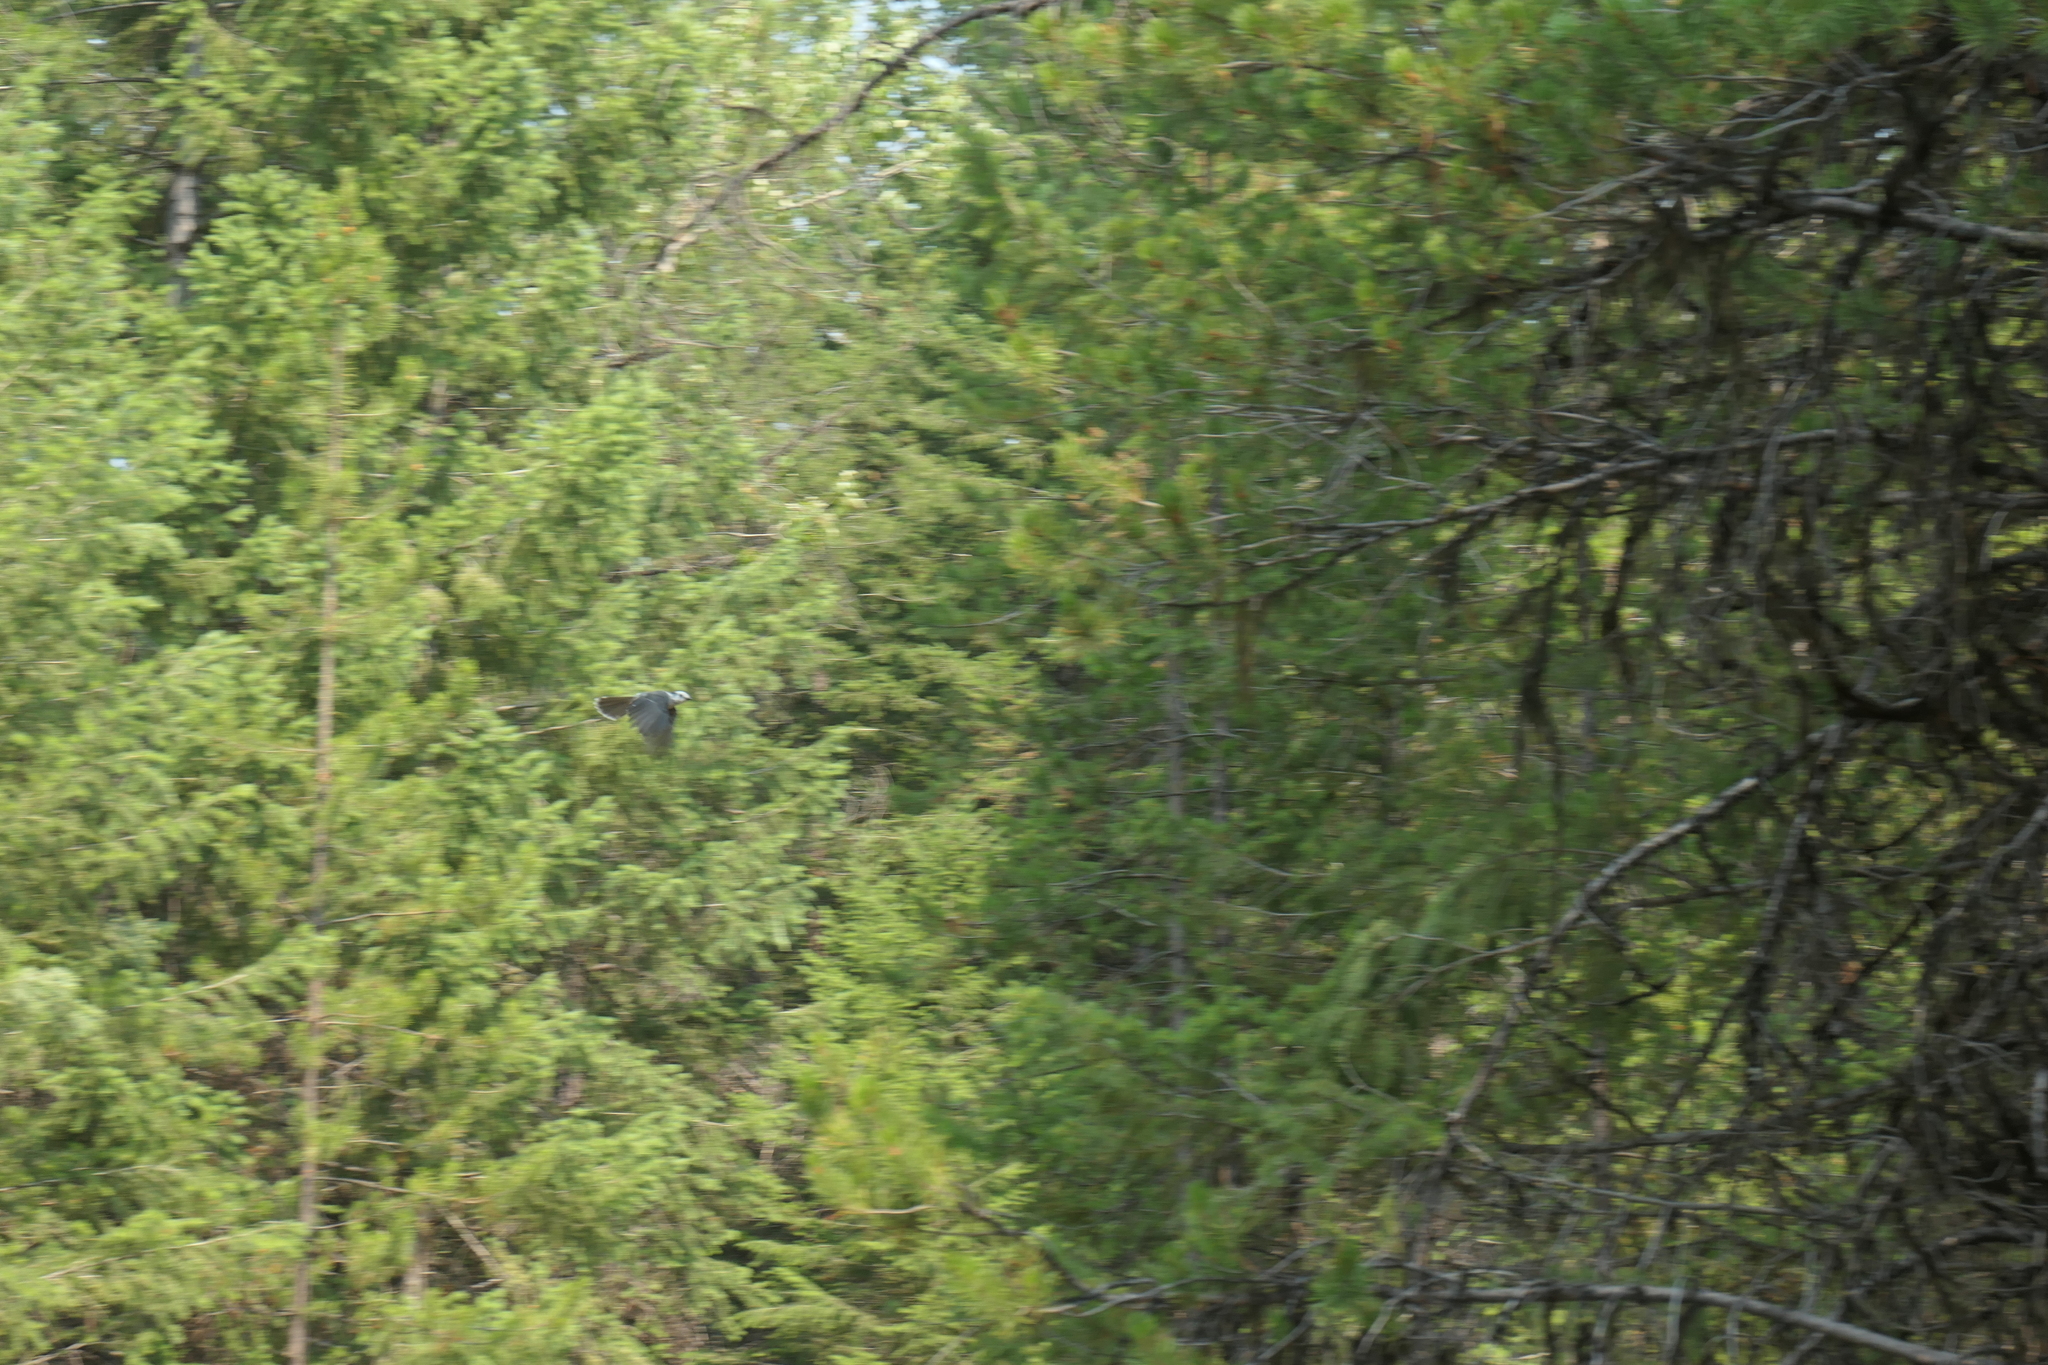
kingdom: Animalia
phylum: Chordata
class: Aves
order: Passeriformes
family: Corvidae
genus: Perisoreus
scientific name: Perisoreus canadensis
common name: Gray jay
